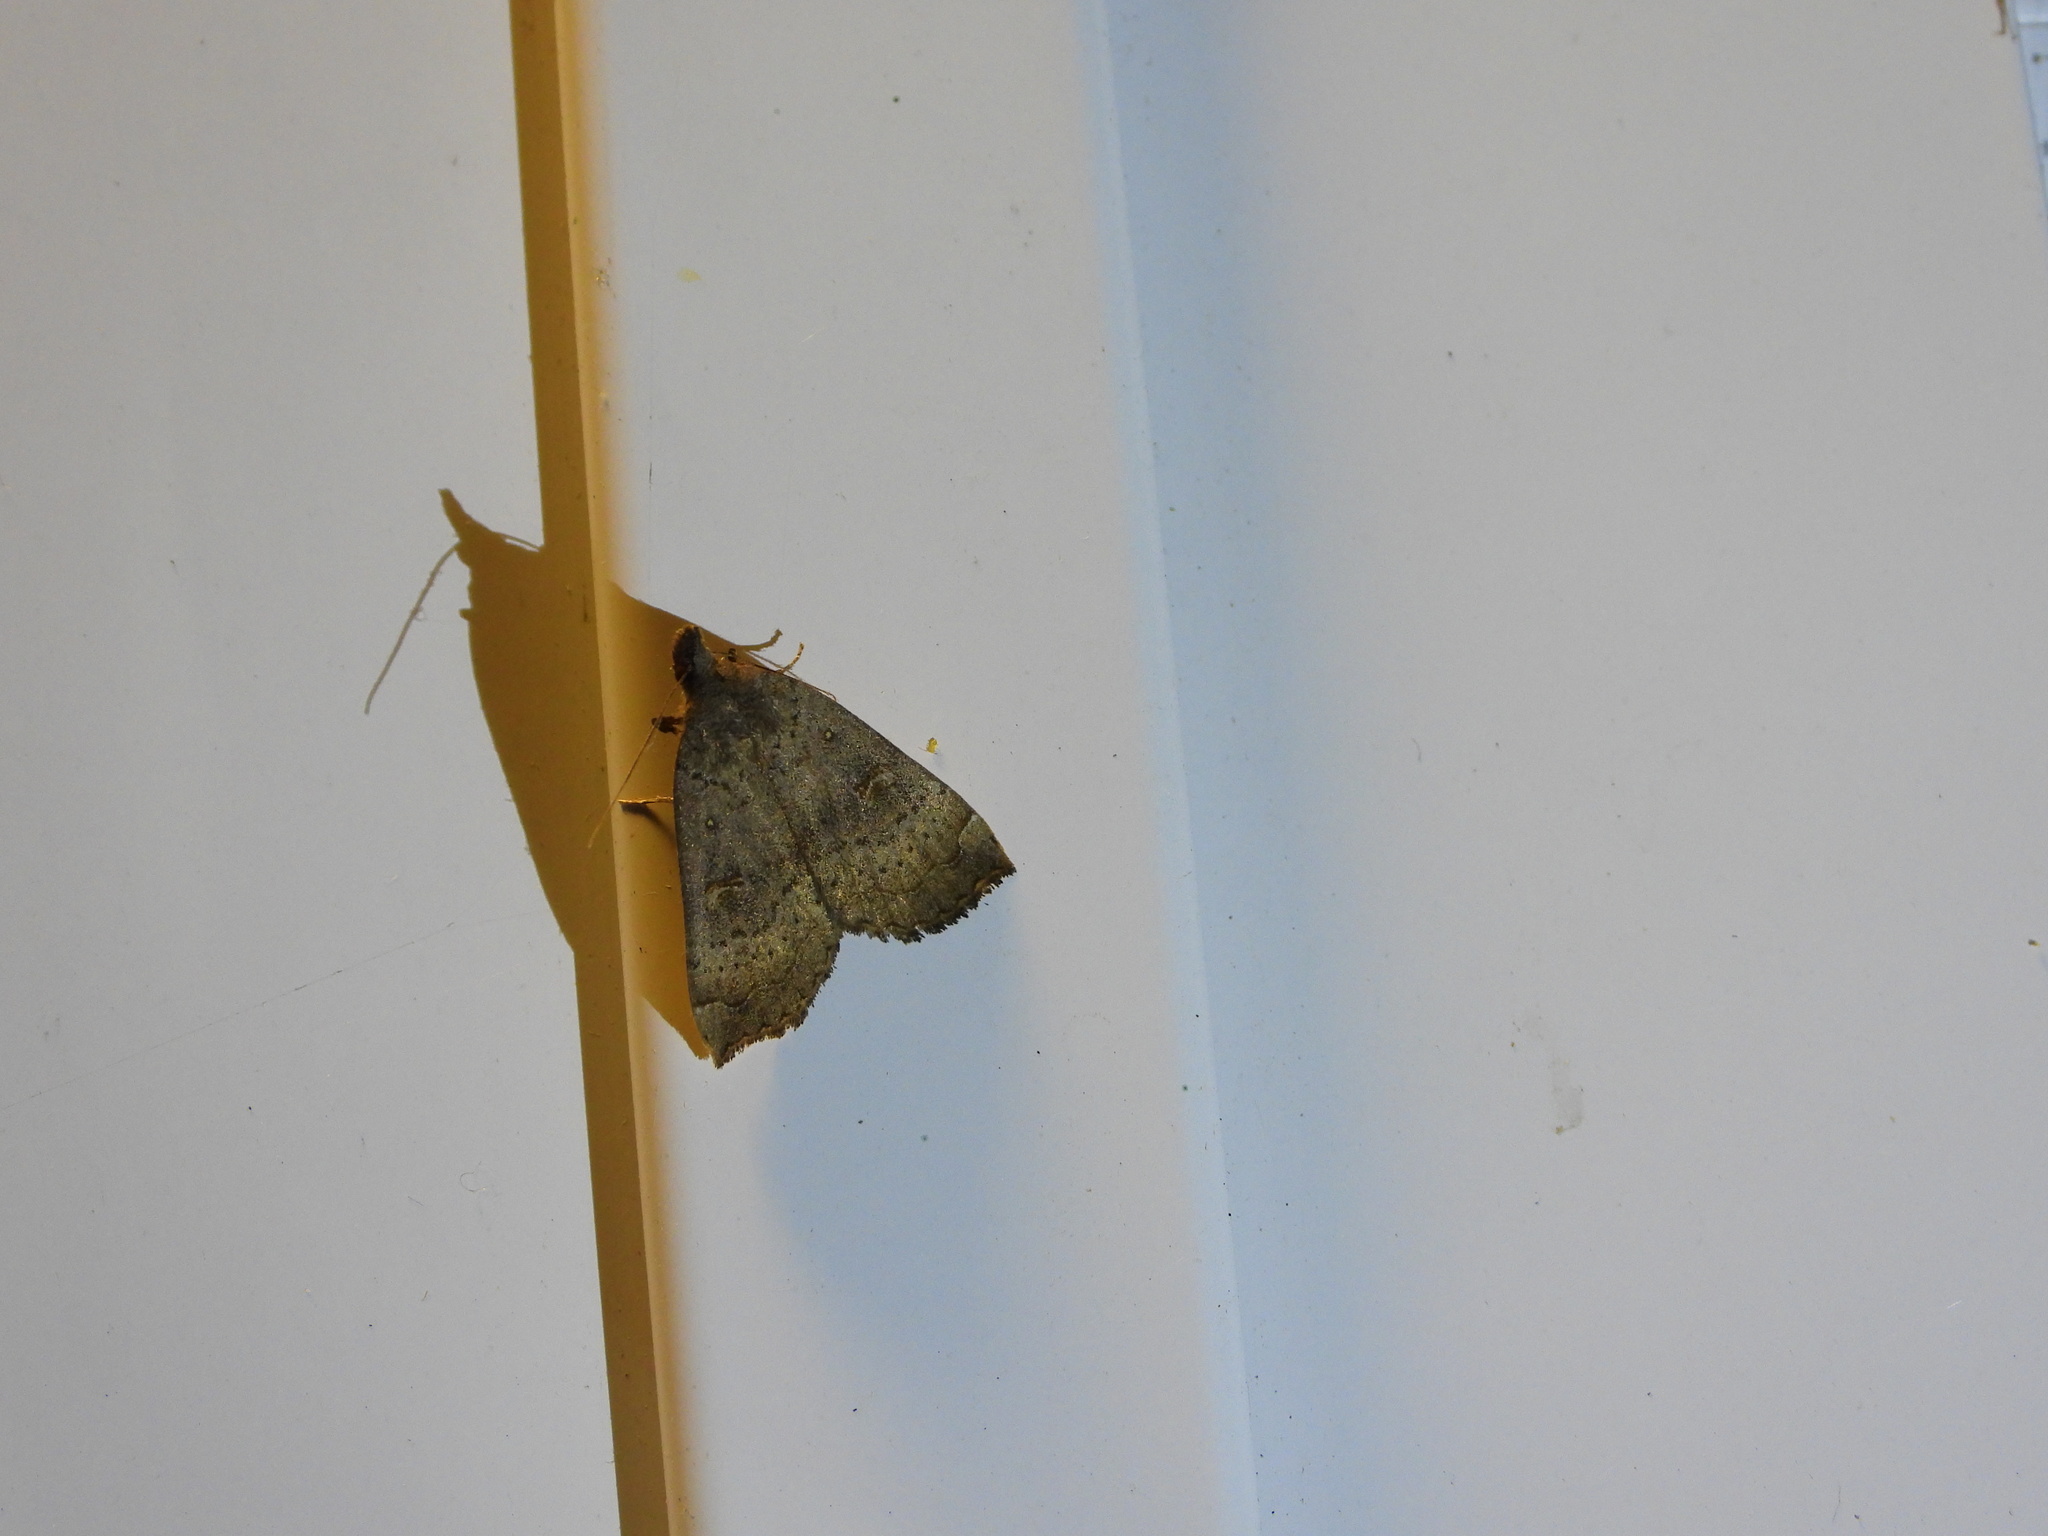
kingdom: Animalia
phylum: Arthropoda
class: Insecta
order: Lepidoptera
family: Erebidae
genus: Rhapsa
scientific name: Rhapsa scotosialis
